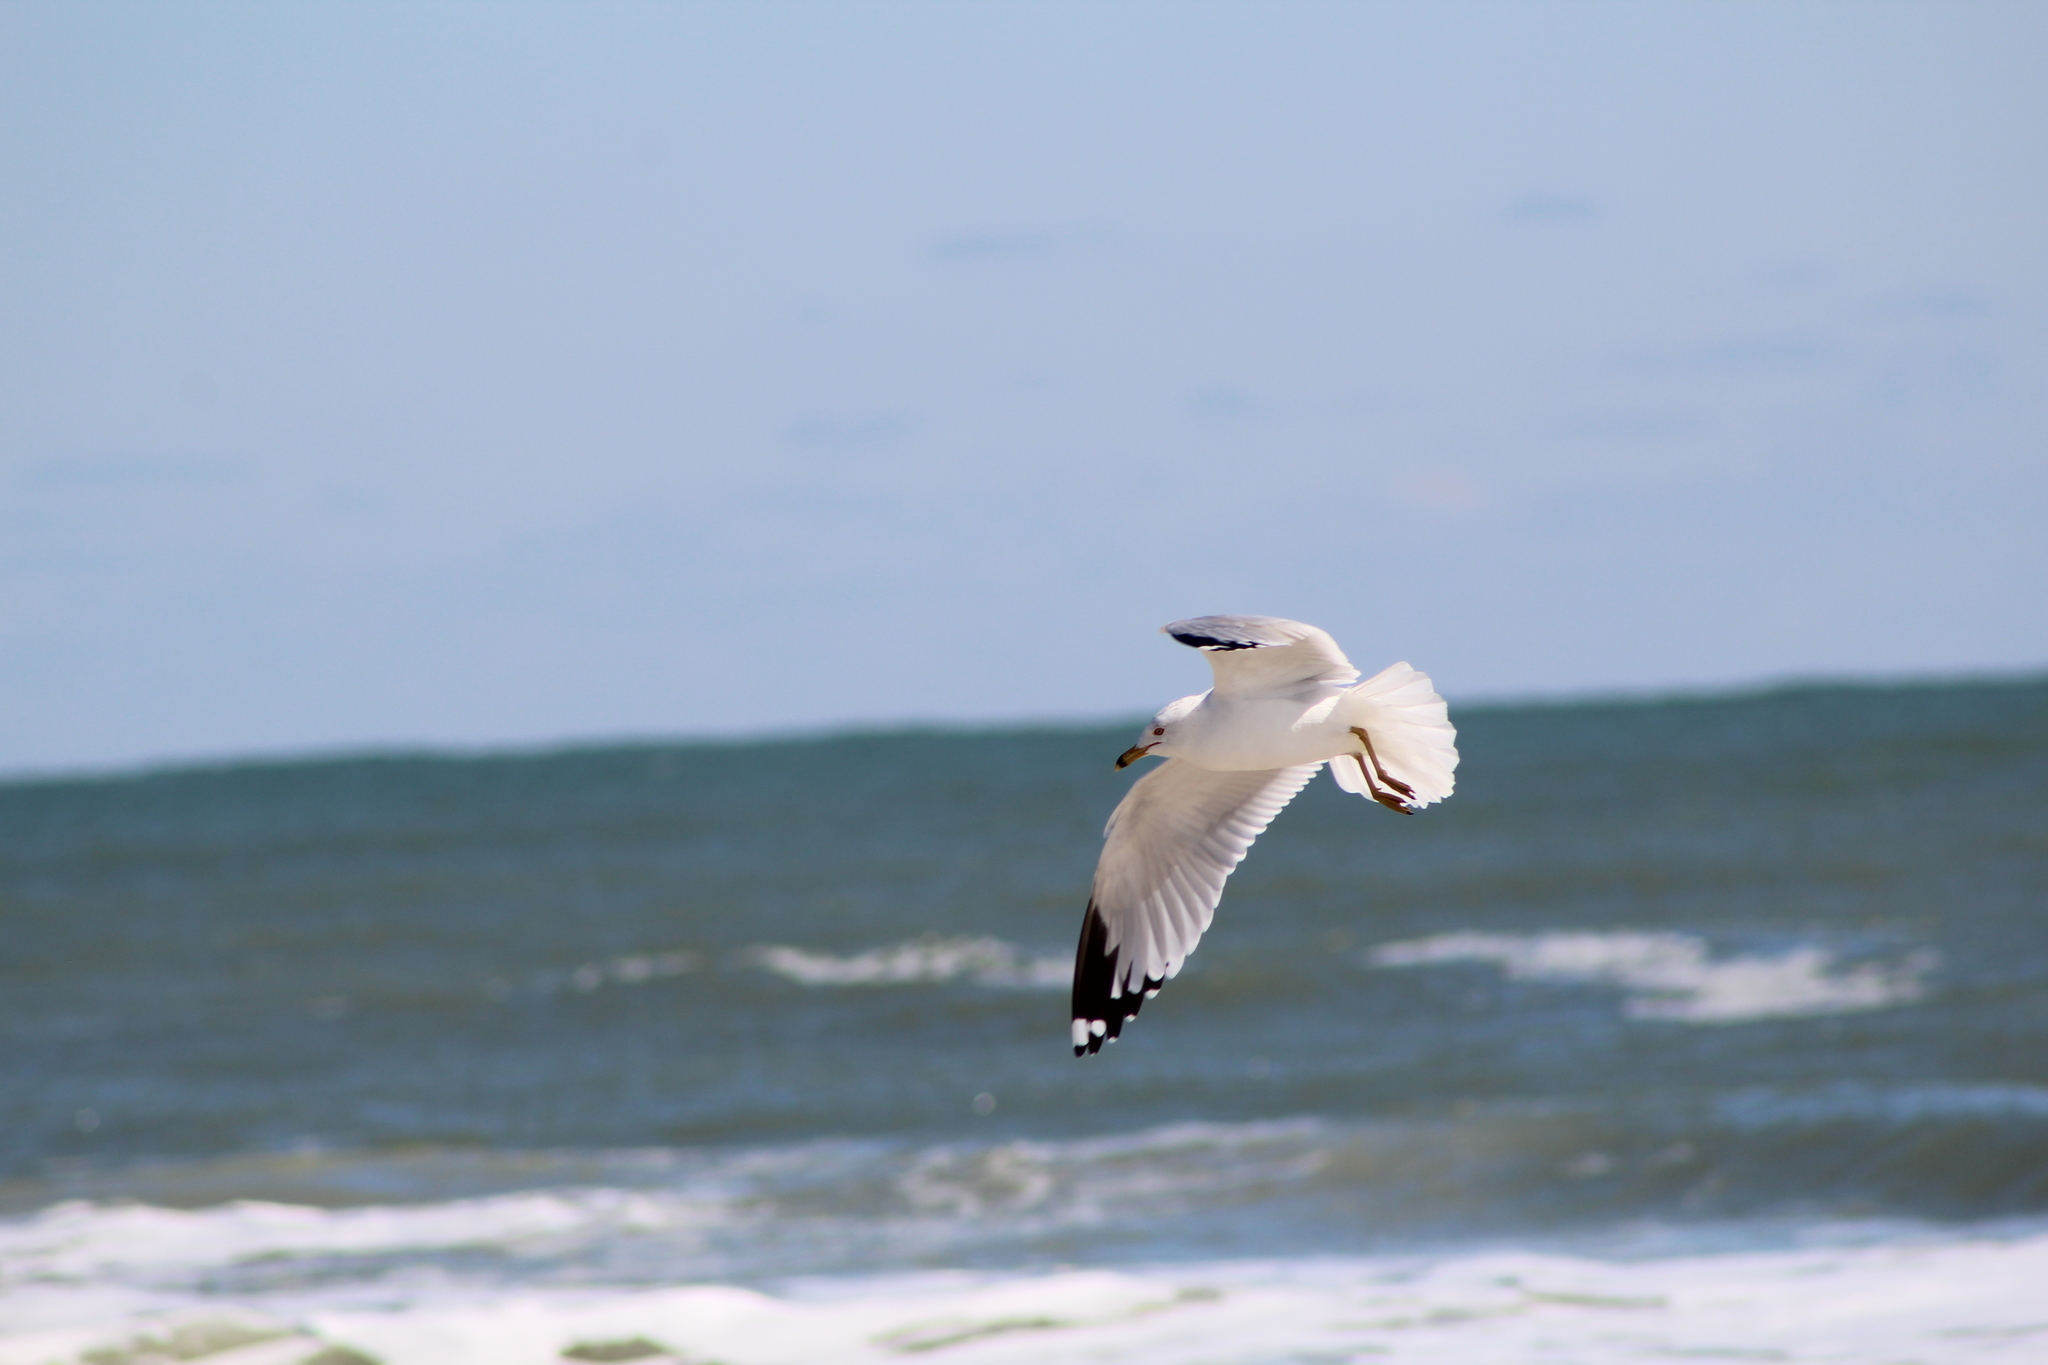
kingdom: Animalia
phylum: Chordata
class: Aves
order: Charadriiformes
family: Laridae
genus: Larus
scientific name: Larus delawarensis
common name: Ring-billed gull
